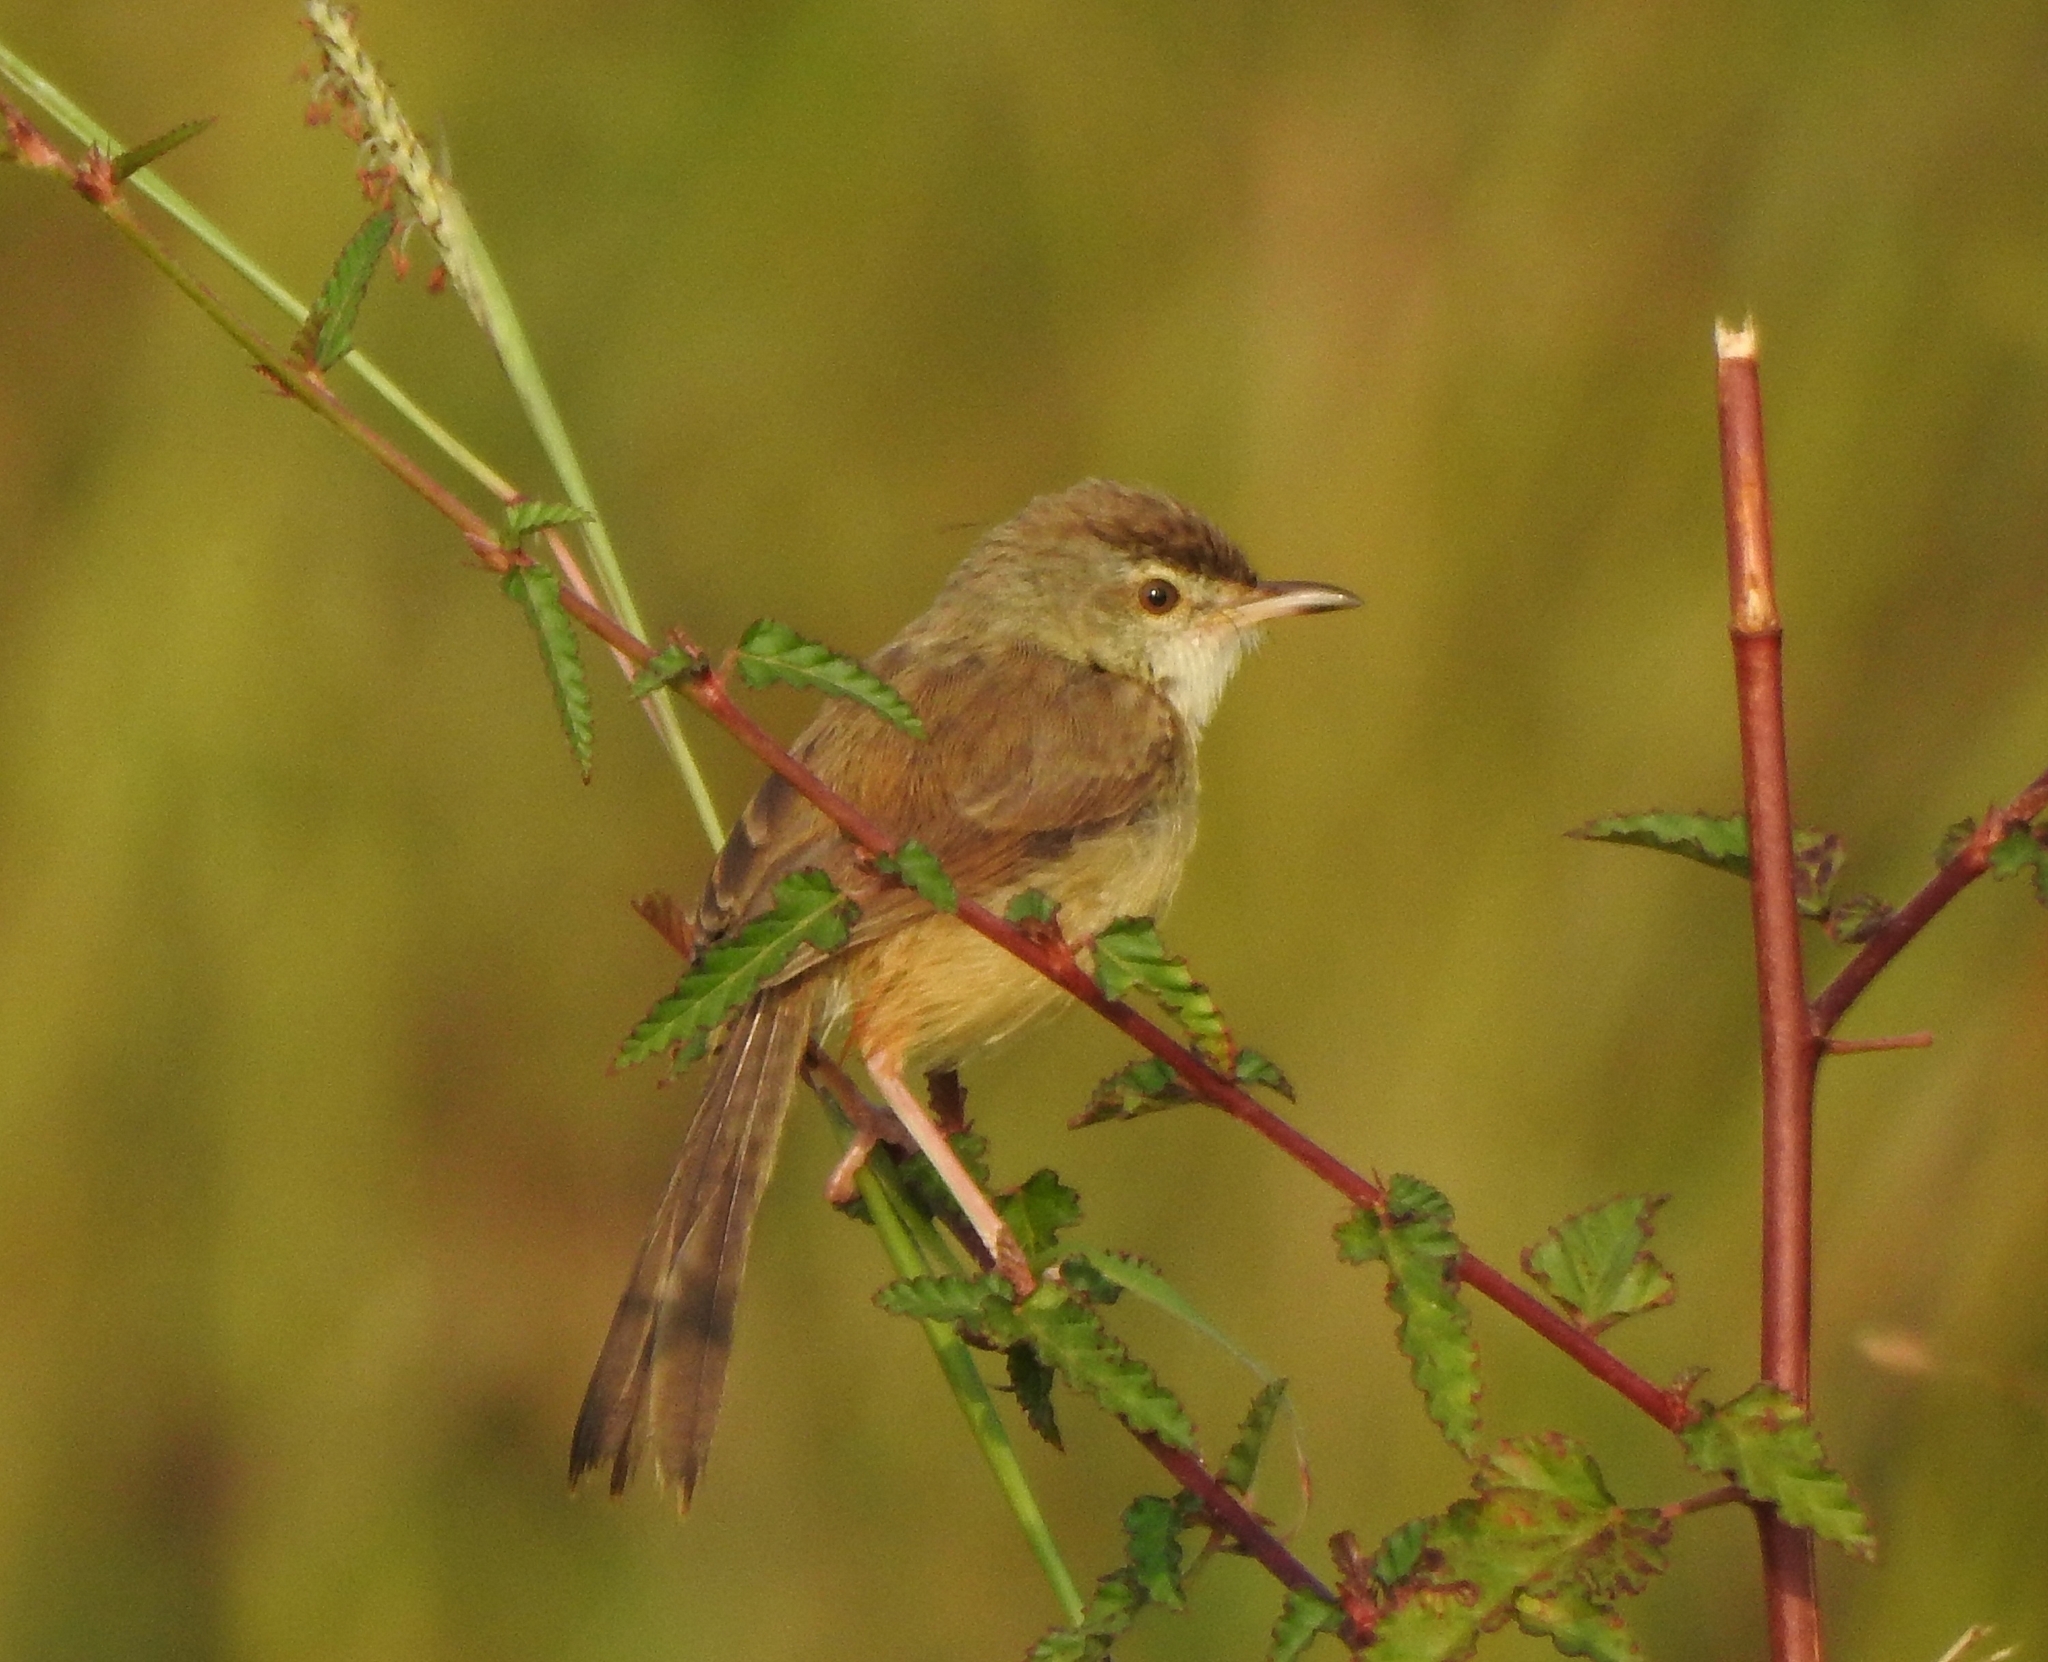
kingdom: Animalia
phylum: Chordata
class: Aves
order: Passeriformes
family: Cisticolidae
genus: Prinia
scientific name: Prinia inornata
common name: Plain prinia
